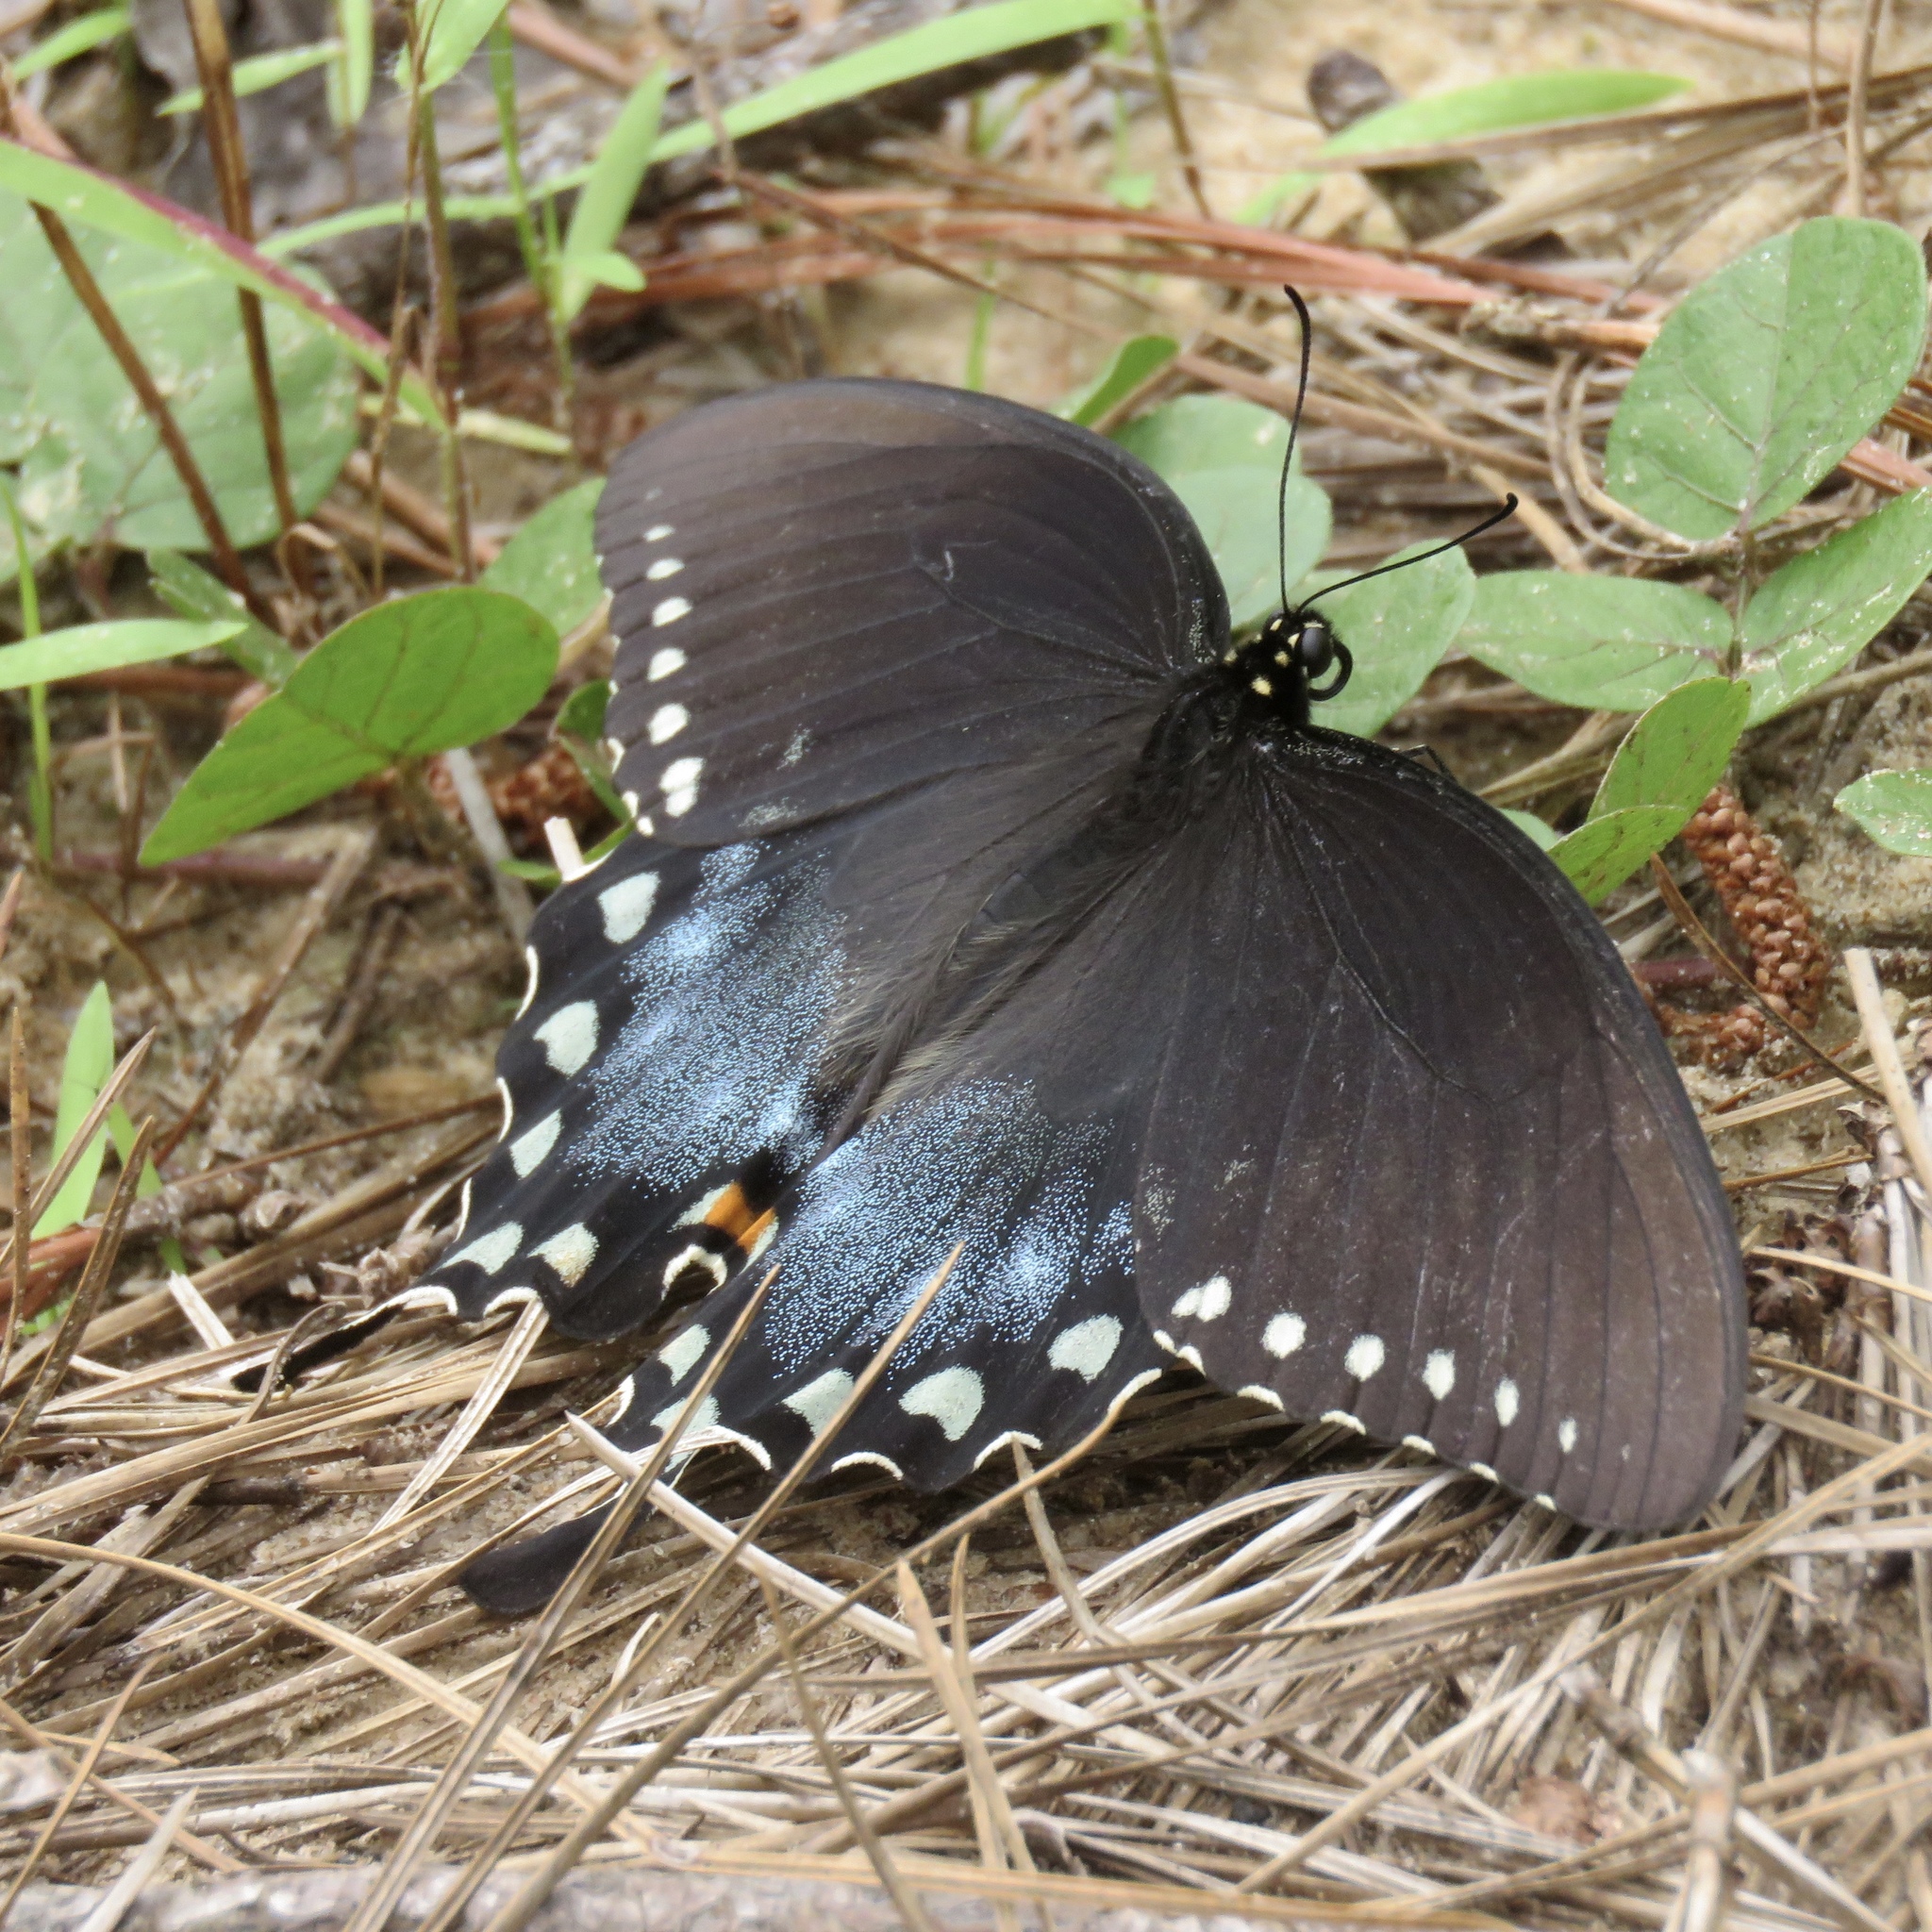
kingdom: Animalia
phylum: Arthropoda
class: Insecta
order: Lepidoptera
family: Papilionidae
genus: Papilio
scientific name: Papilio troilus
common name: Spicebush swallowtail
